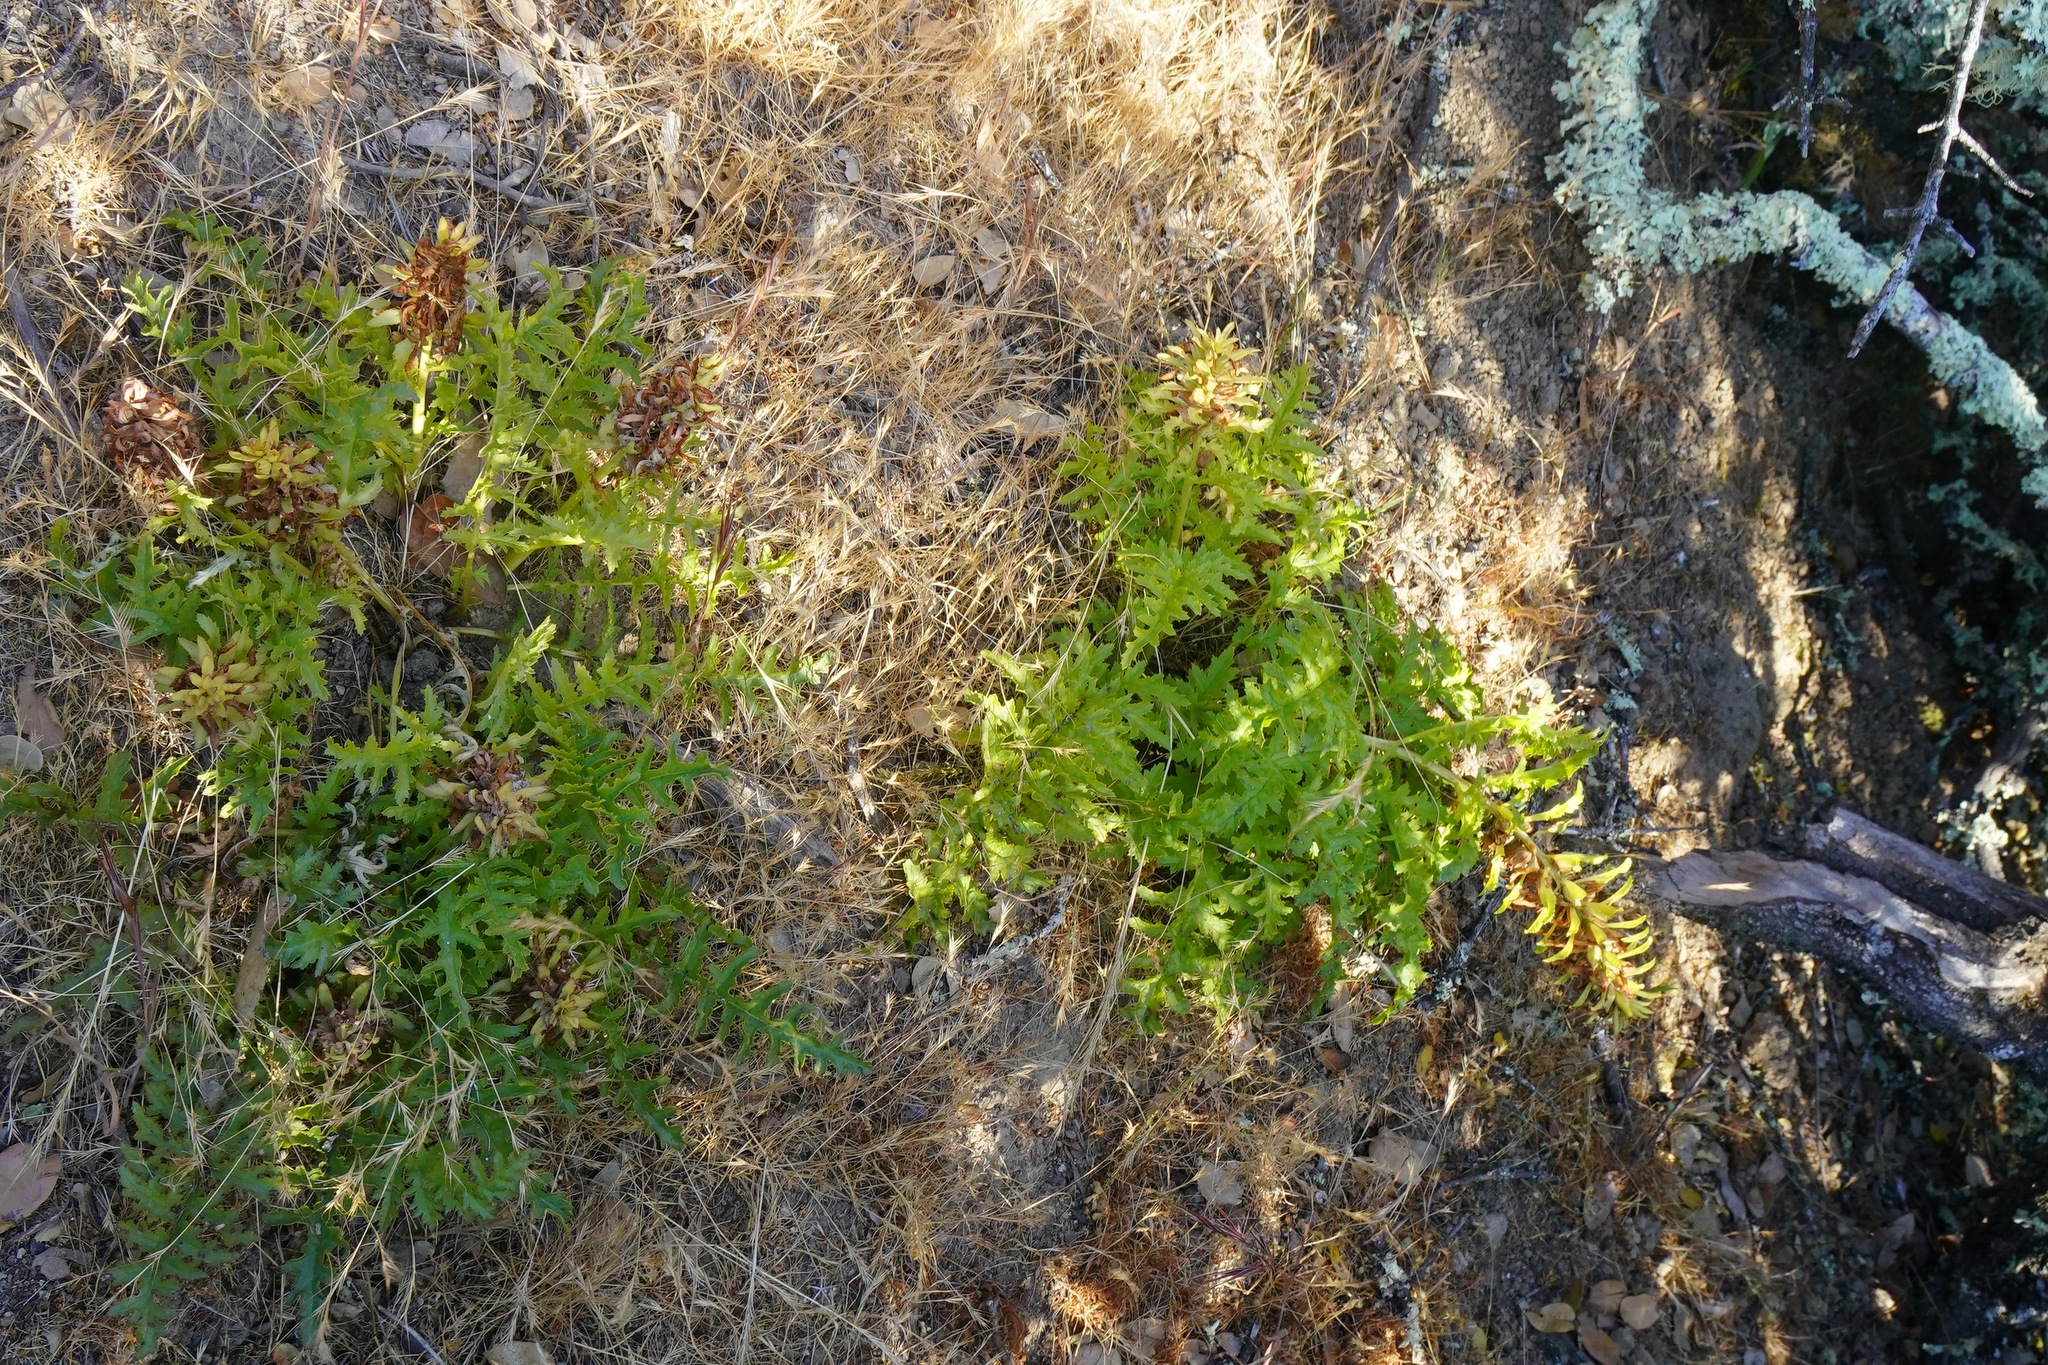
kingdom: Plantae
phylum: Tracheophyta
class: Magnoliopsida
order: Lamiales
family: Orobanchaceae
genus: Pedicularis
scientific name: Pedicularis densiflora
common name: Indian warrior
